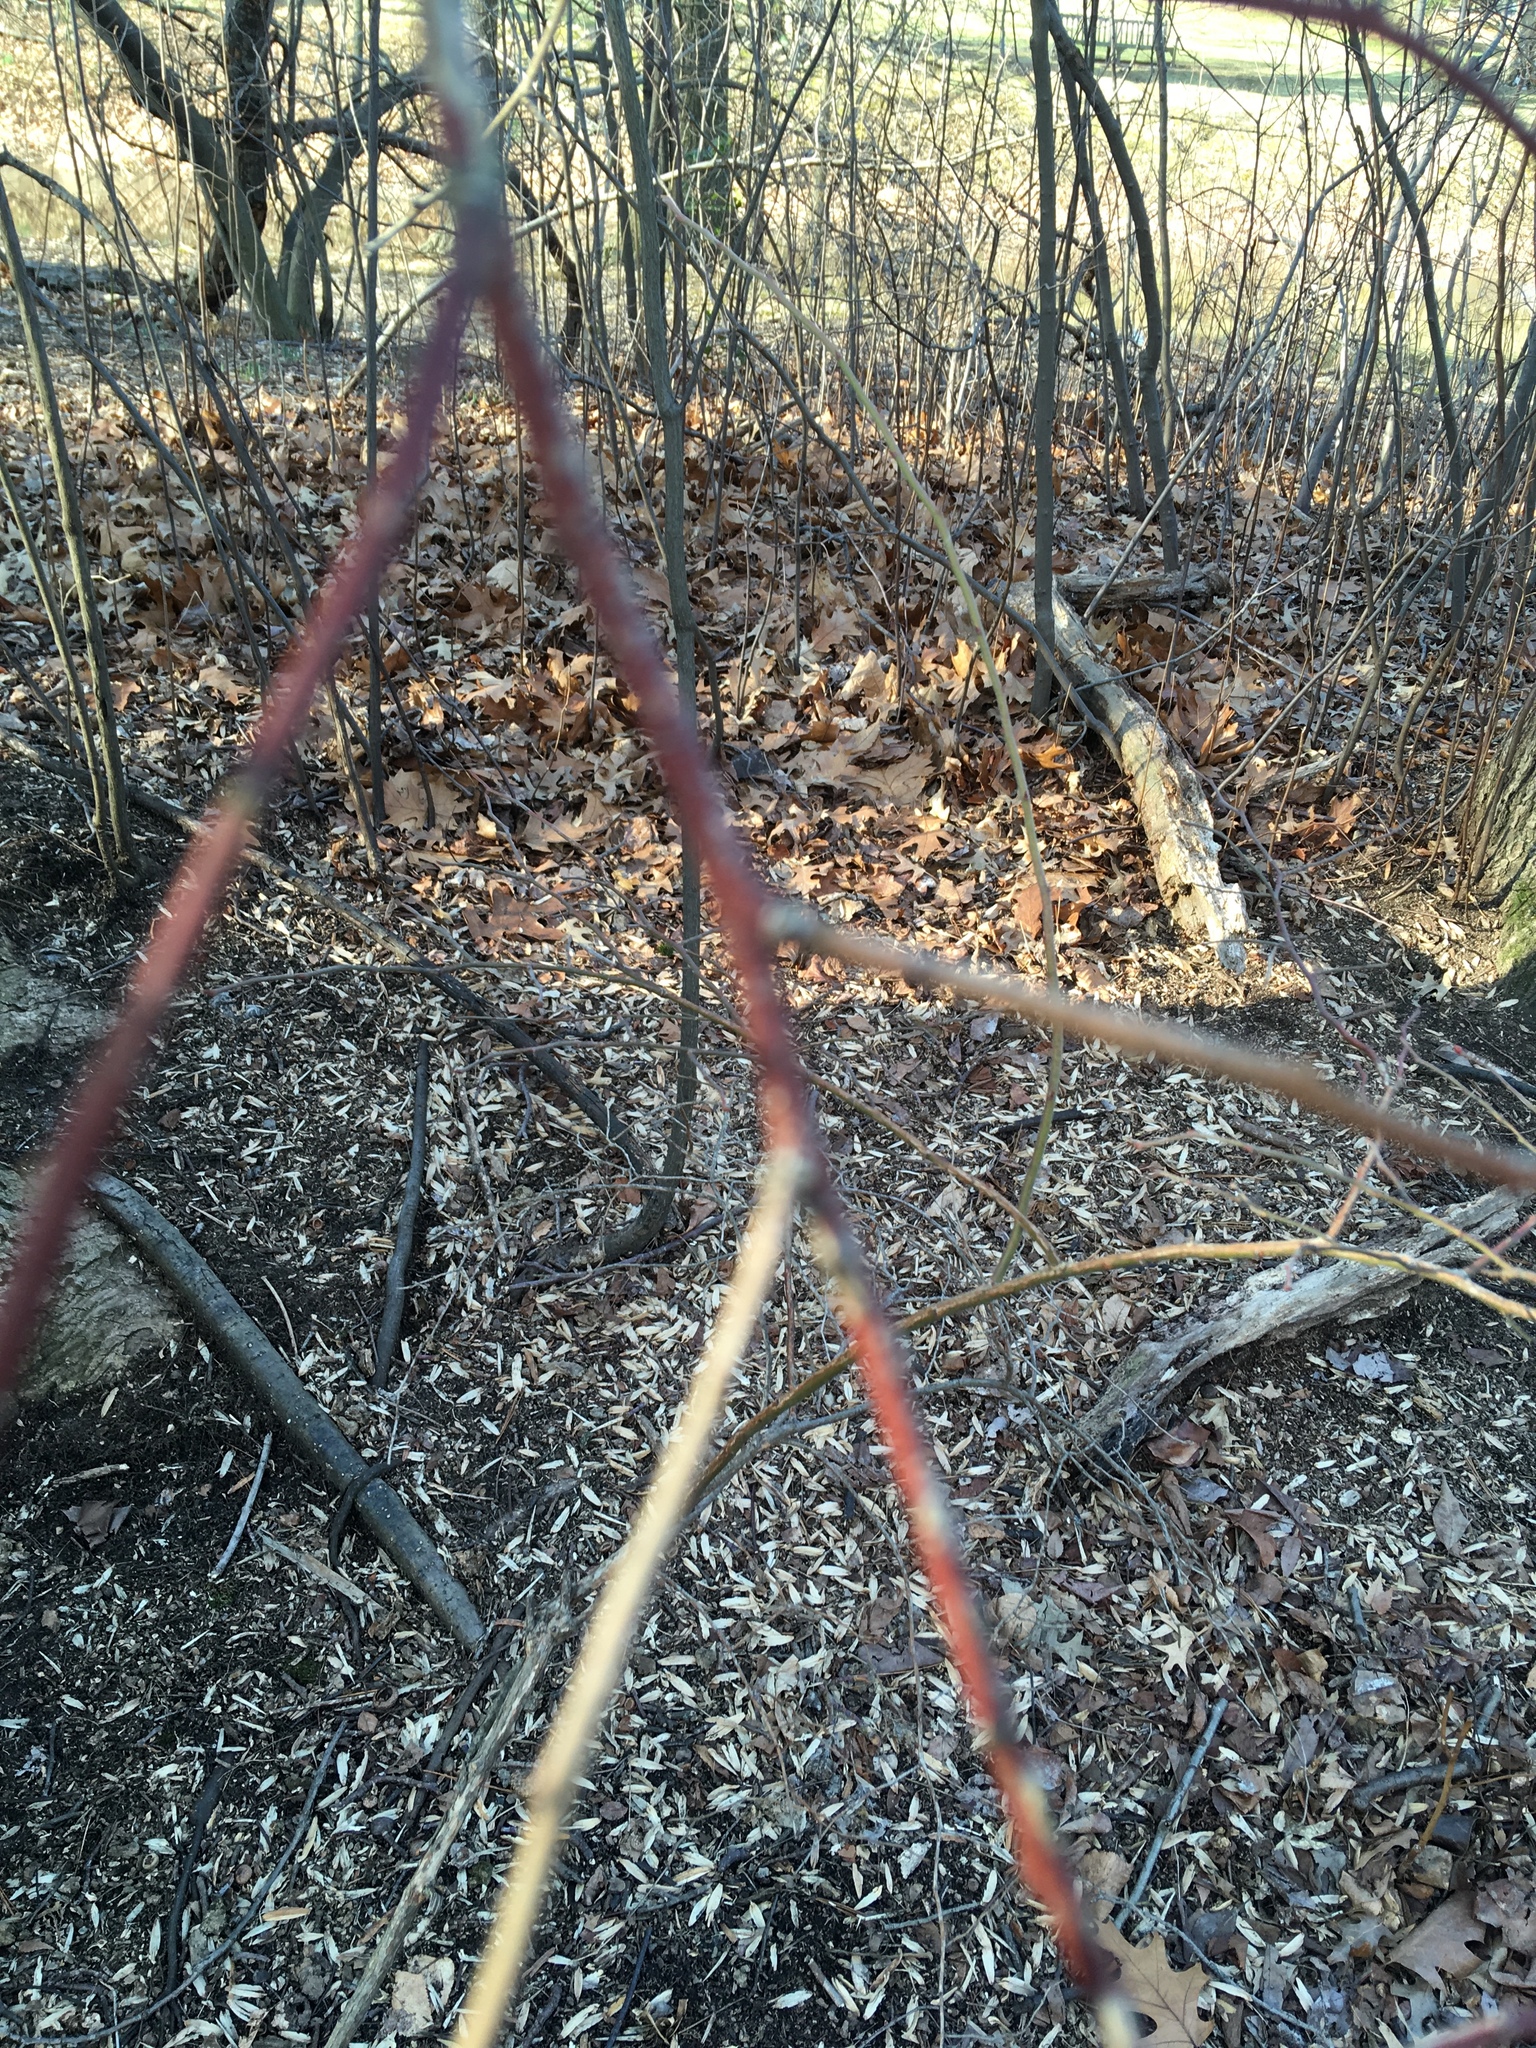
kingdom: Plantae
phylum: Tracheophyta
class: Magnoliopsida
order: Ericales
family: Ericaceae
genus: Vaccinium
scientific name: Vaccinium corymbosum
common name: Blueberry
